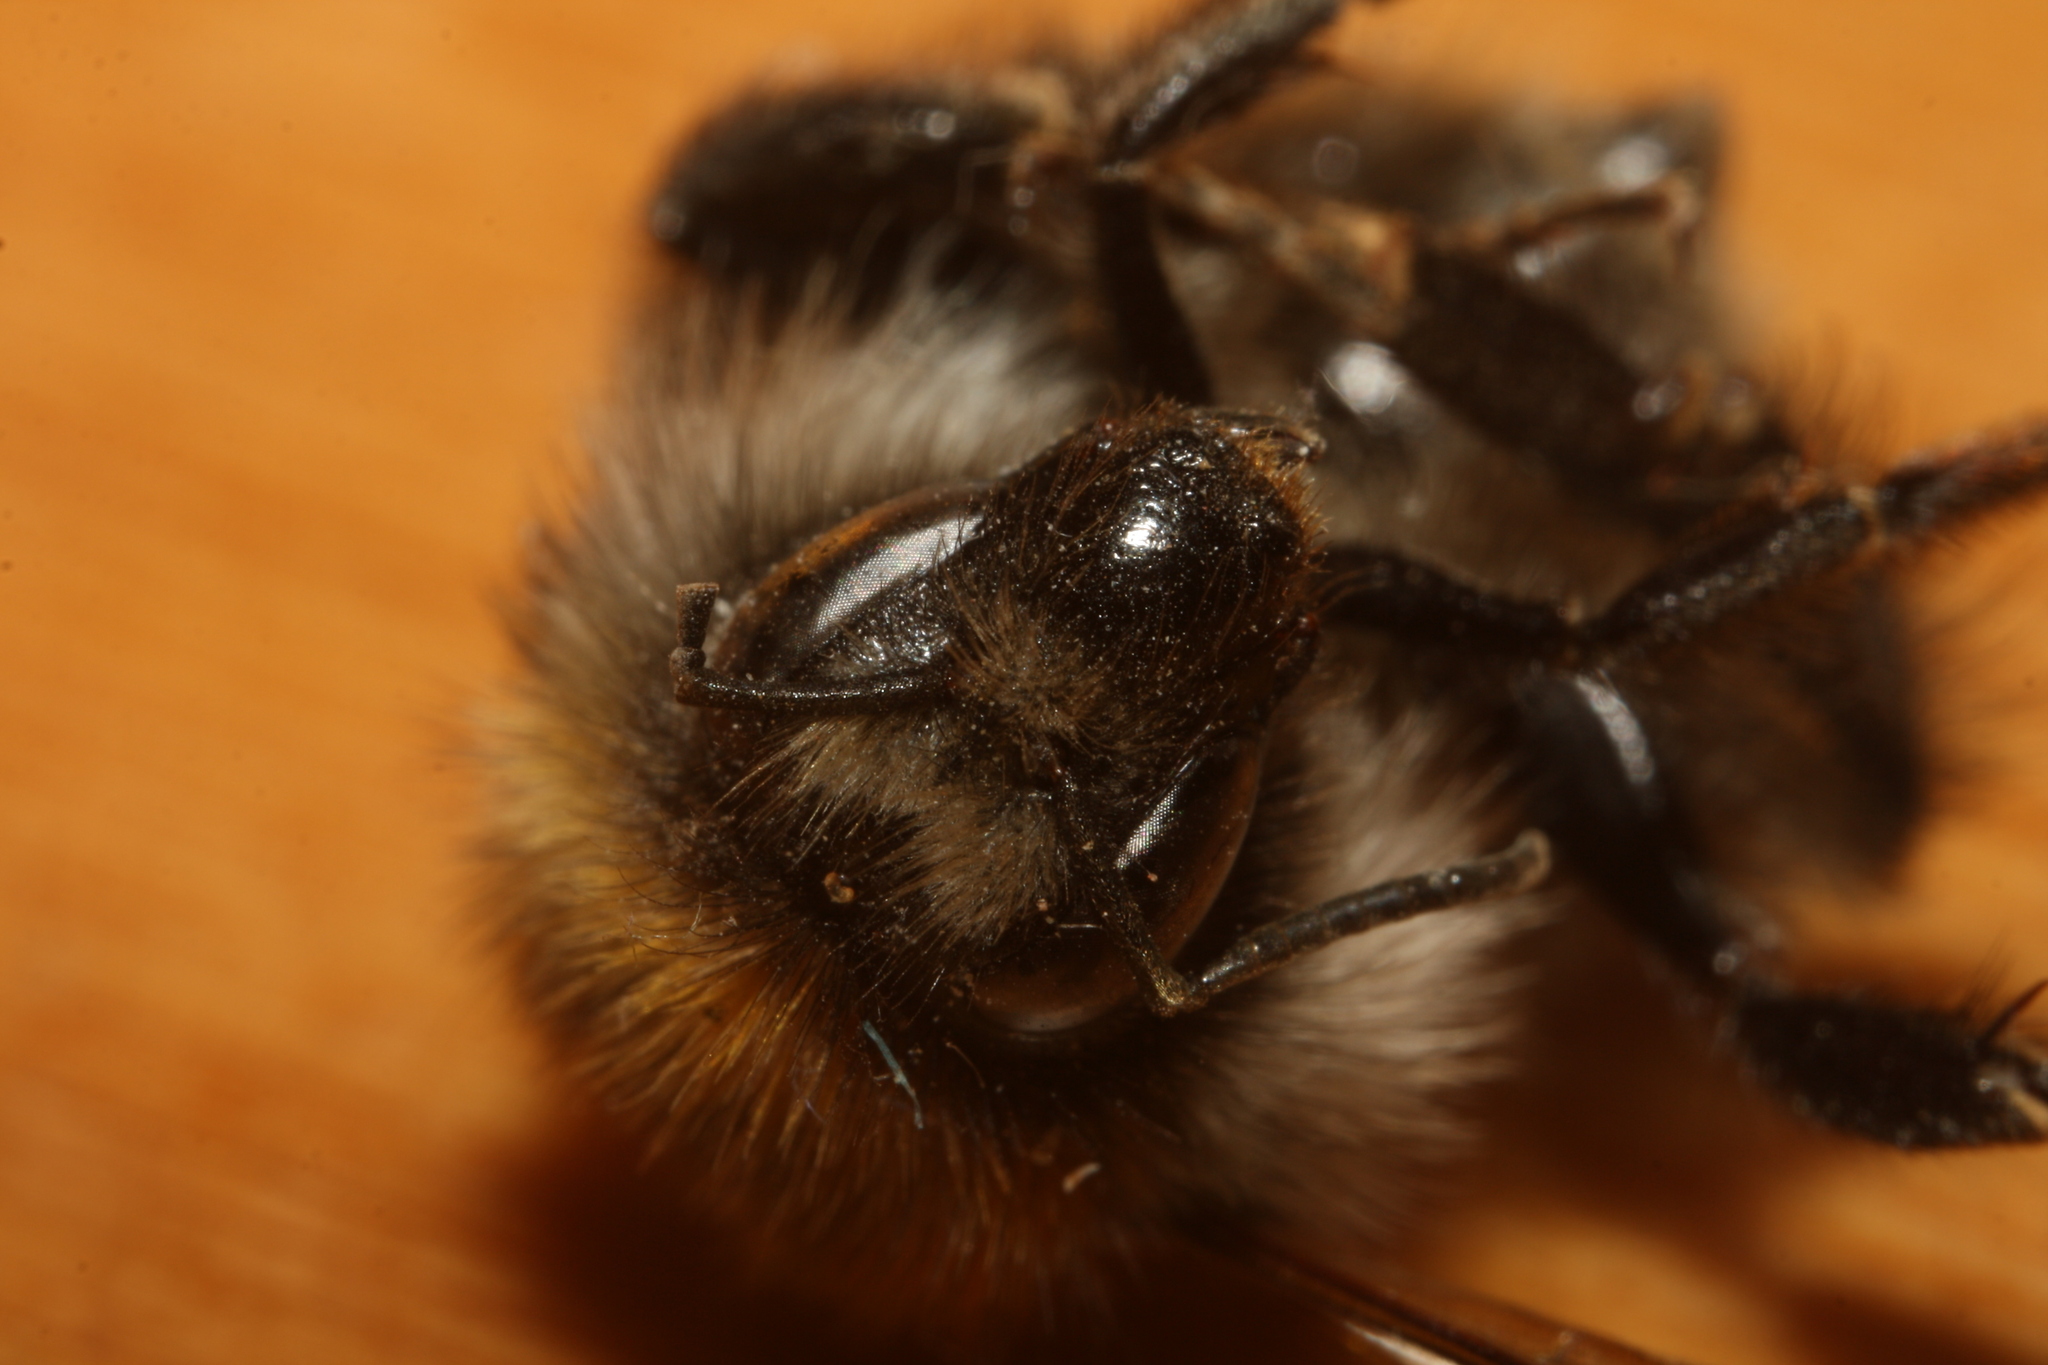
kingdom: Animalia
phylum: Arthropoda
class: Insecta
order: Hymenoptera
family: Apidae
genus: Bombus
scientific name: Bombus pascuorum
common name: Common carder bee
